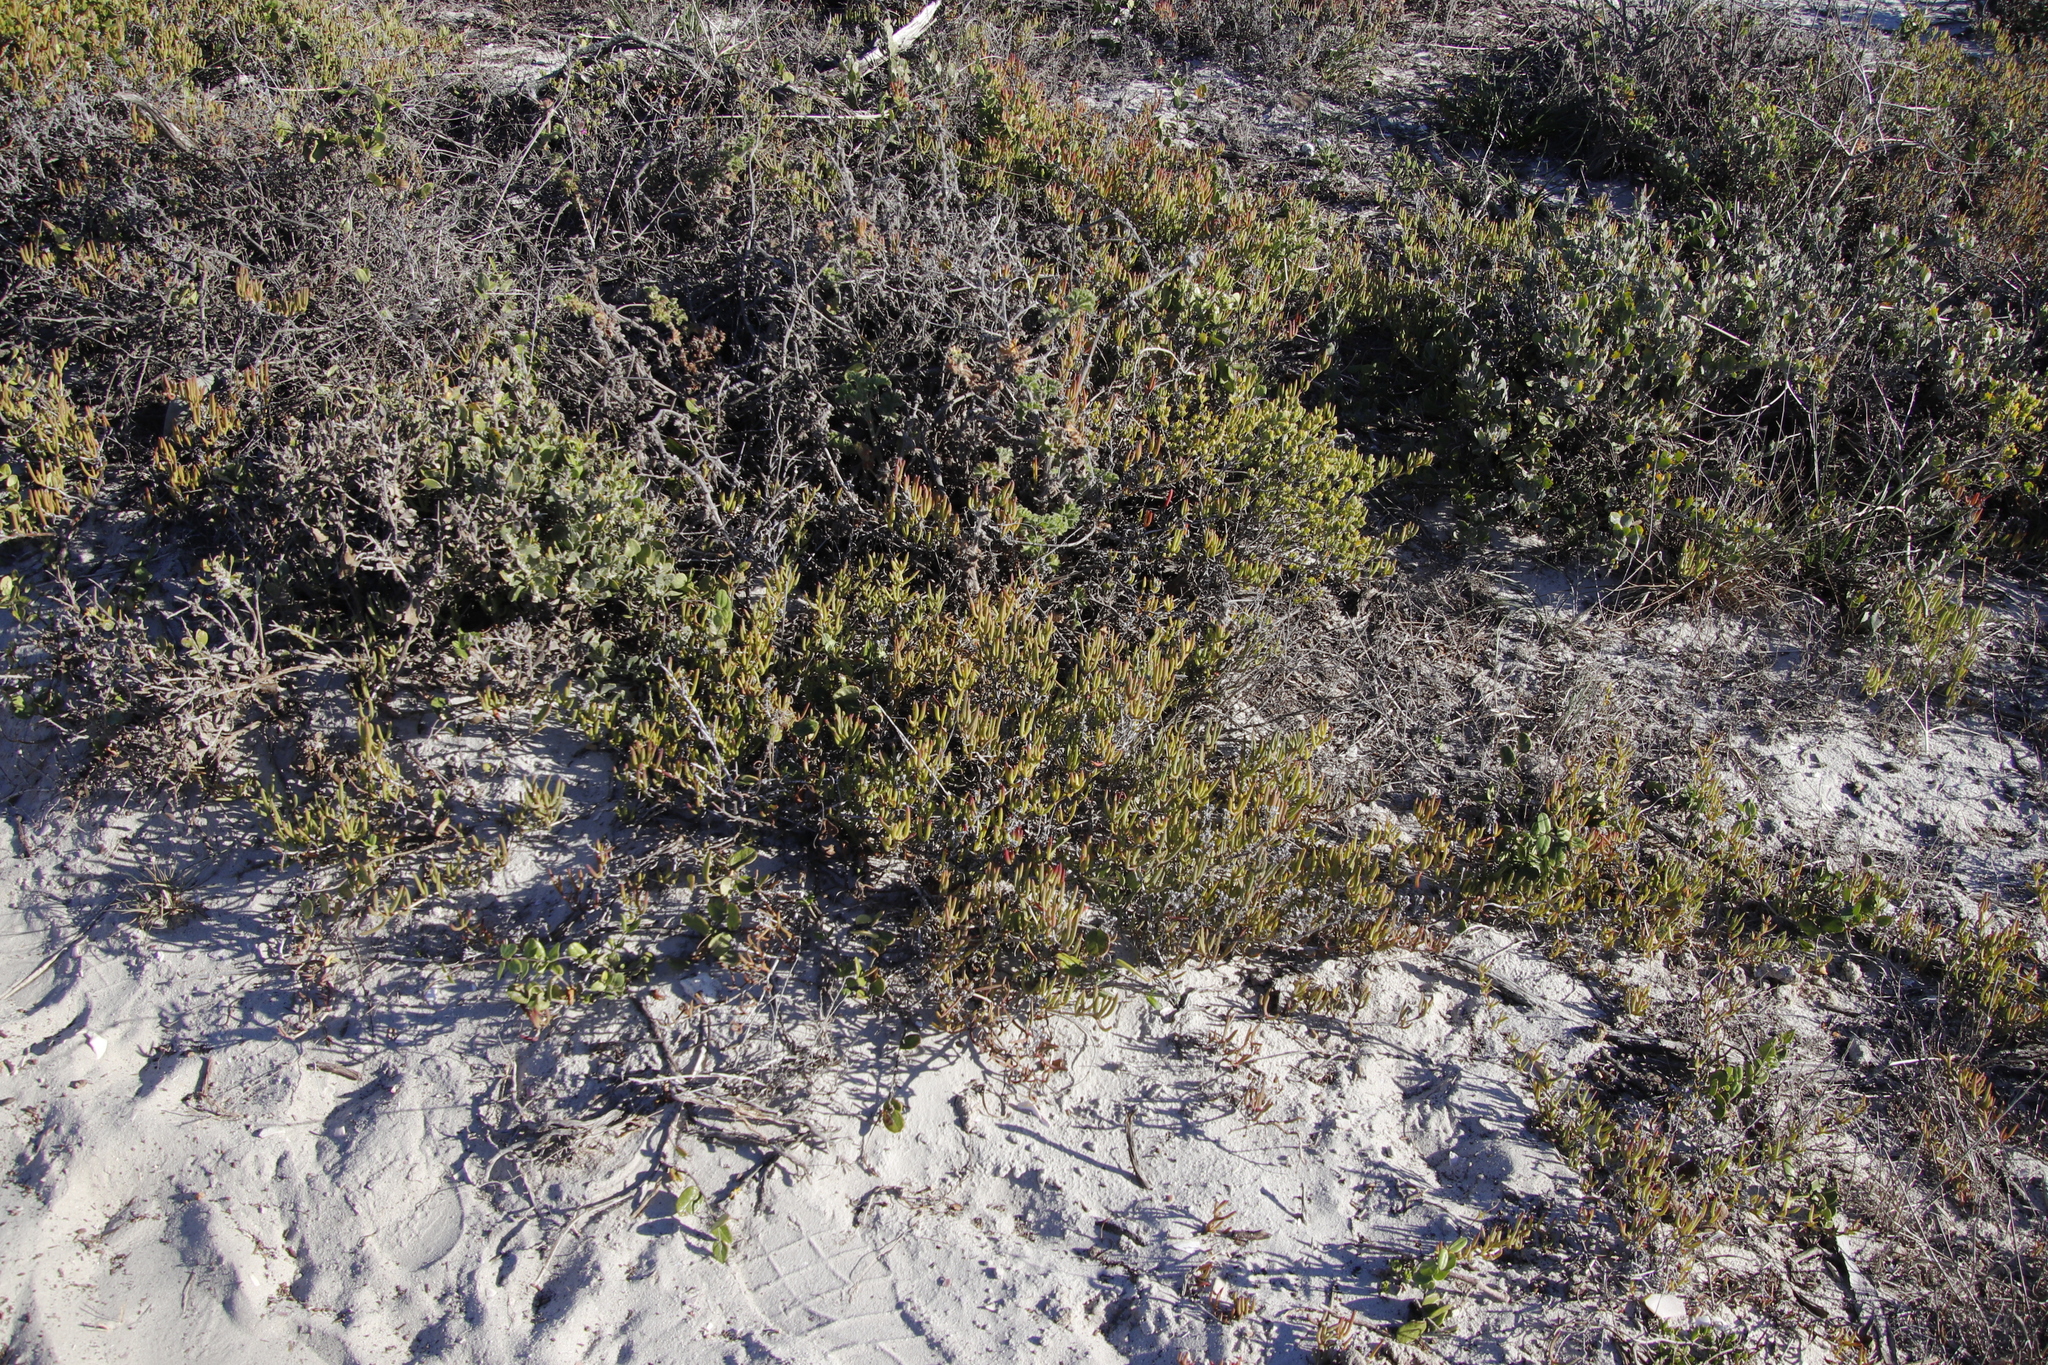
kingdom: Plantae
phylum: Tracheophyta
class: Magnoliopsida
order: Caryophyllales
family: Aizoaceae
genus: Ruschia
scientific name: Ruschia macowanii
